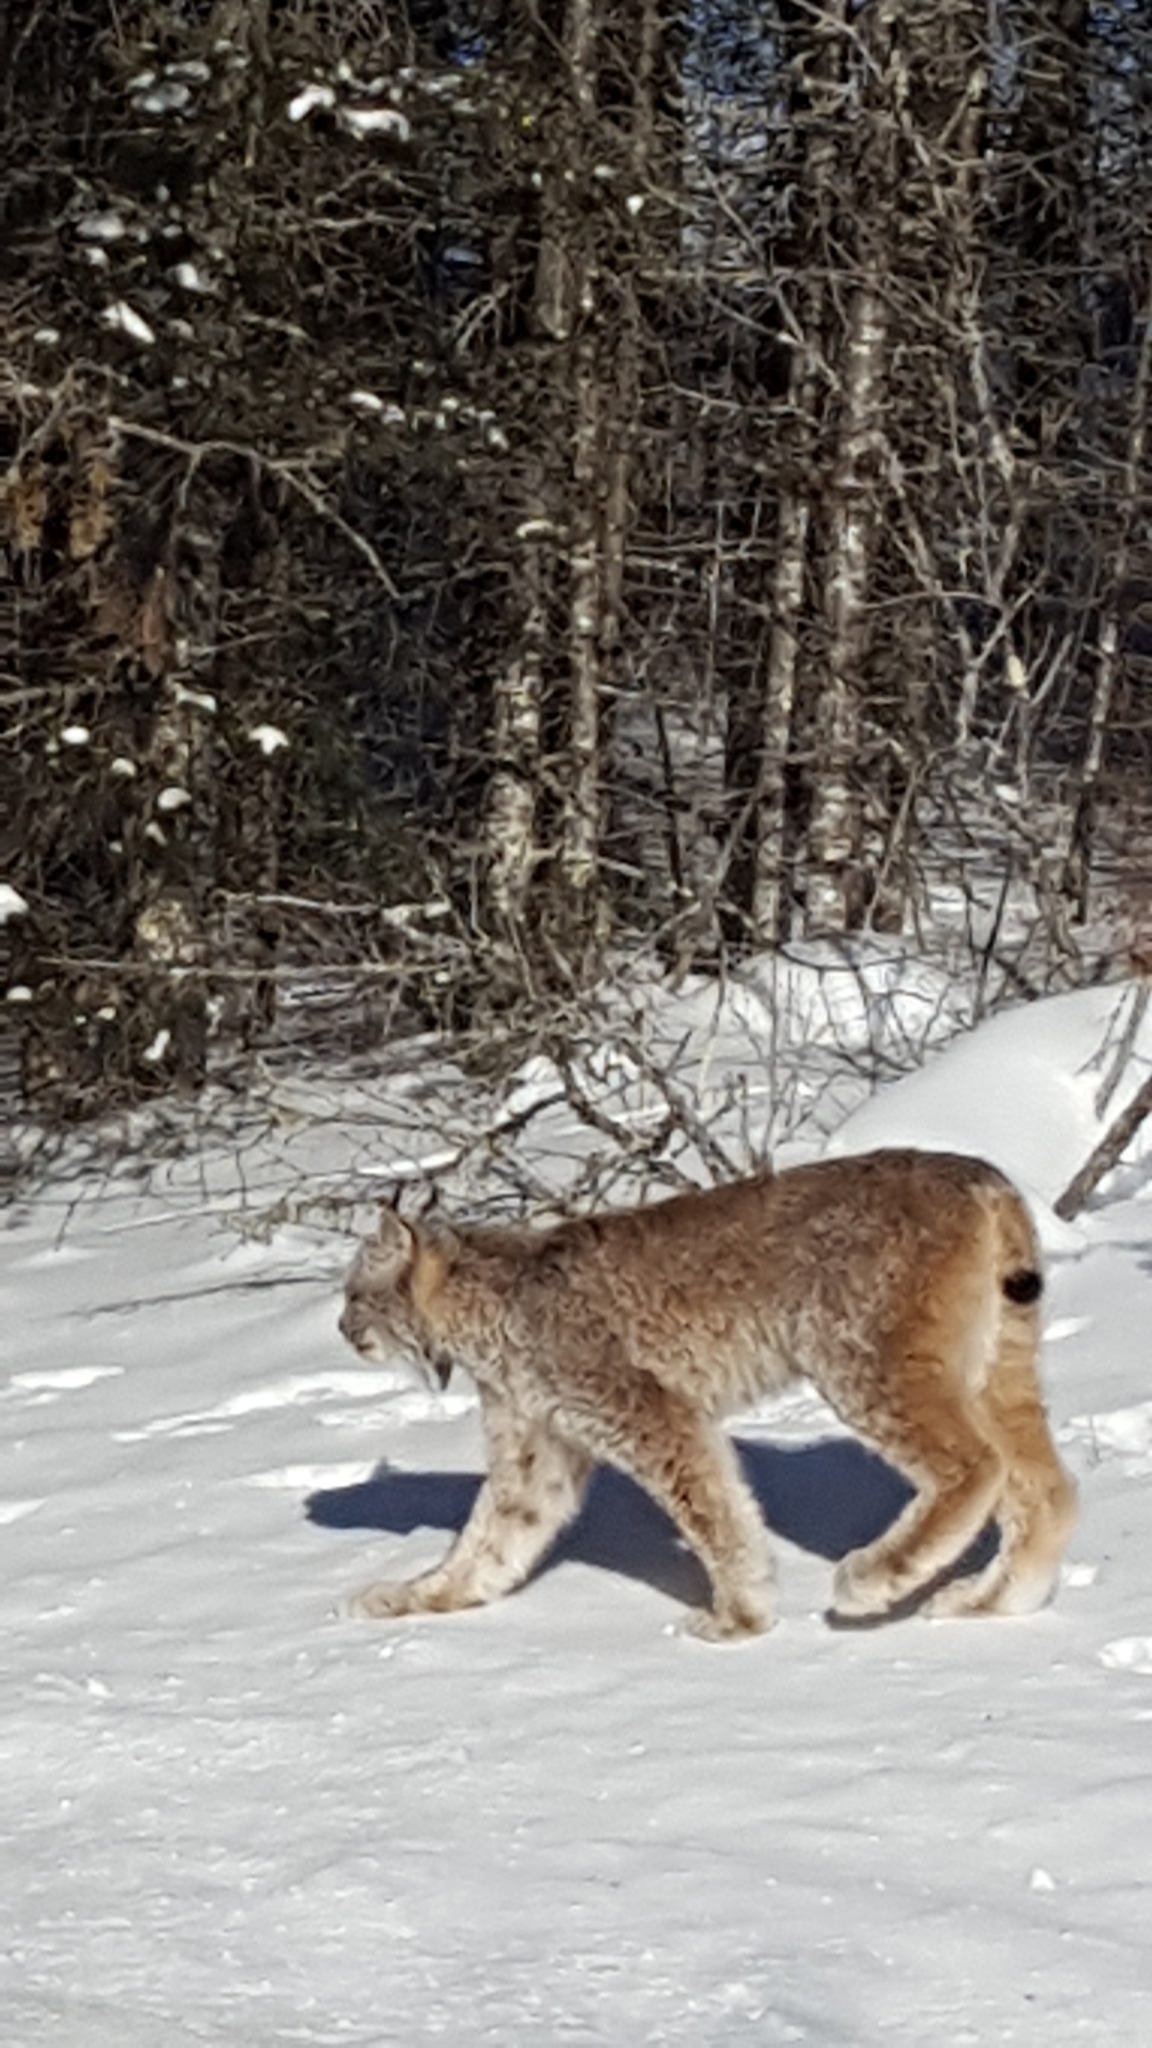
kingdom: Animalia
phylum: Chordata
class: Mammalia
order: Carnivora
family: Felidae
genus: Lynx
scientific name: Lynx canadensis
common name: Canadian lynx
